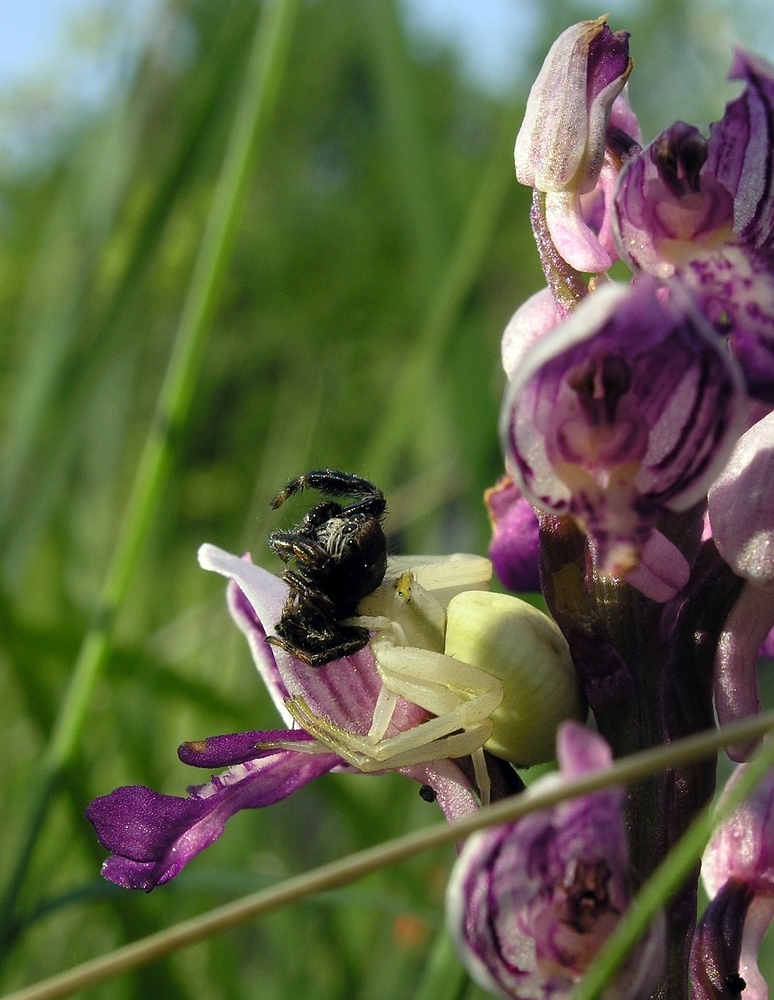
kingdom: Animalia
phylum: Arthropoda
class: Arachnida
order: Araneae
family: Salticidae
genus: Evarcha
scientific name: Evarcha arcuata
